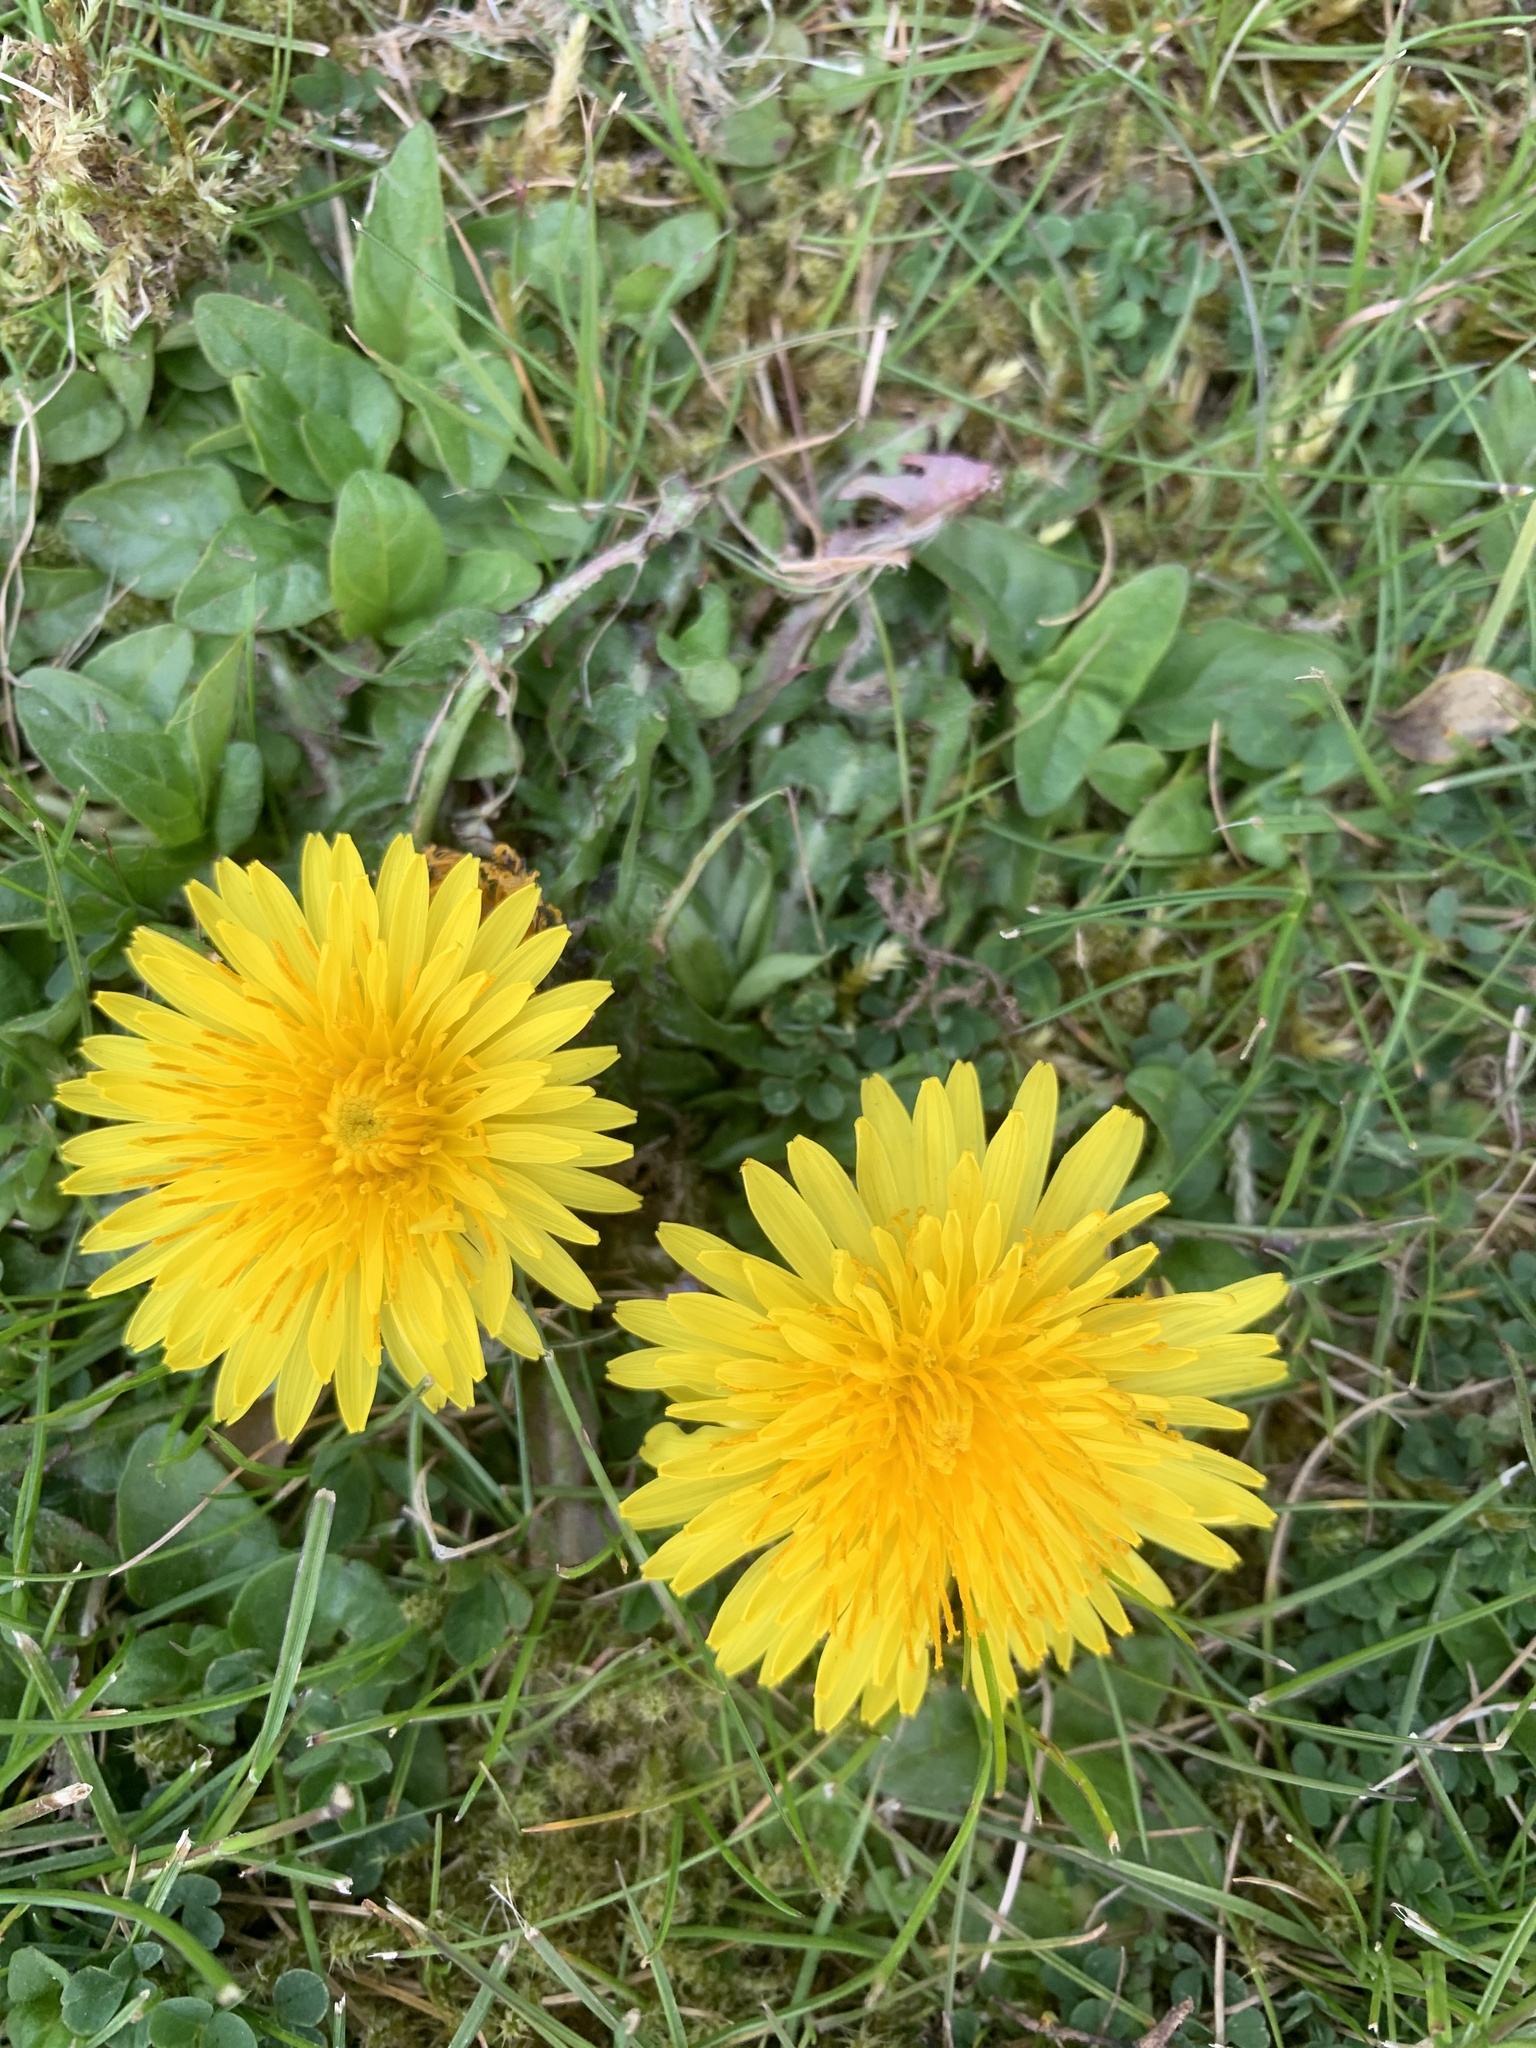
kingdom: Plantae
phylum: Tracheophyta
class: Magnoliopsida
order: Asterales
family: Asteraceae
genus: Taraxacum
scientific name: Taraxacum officinale
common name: Common dandelion
